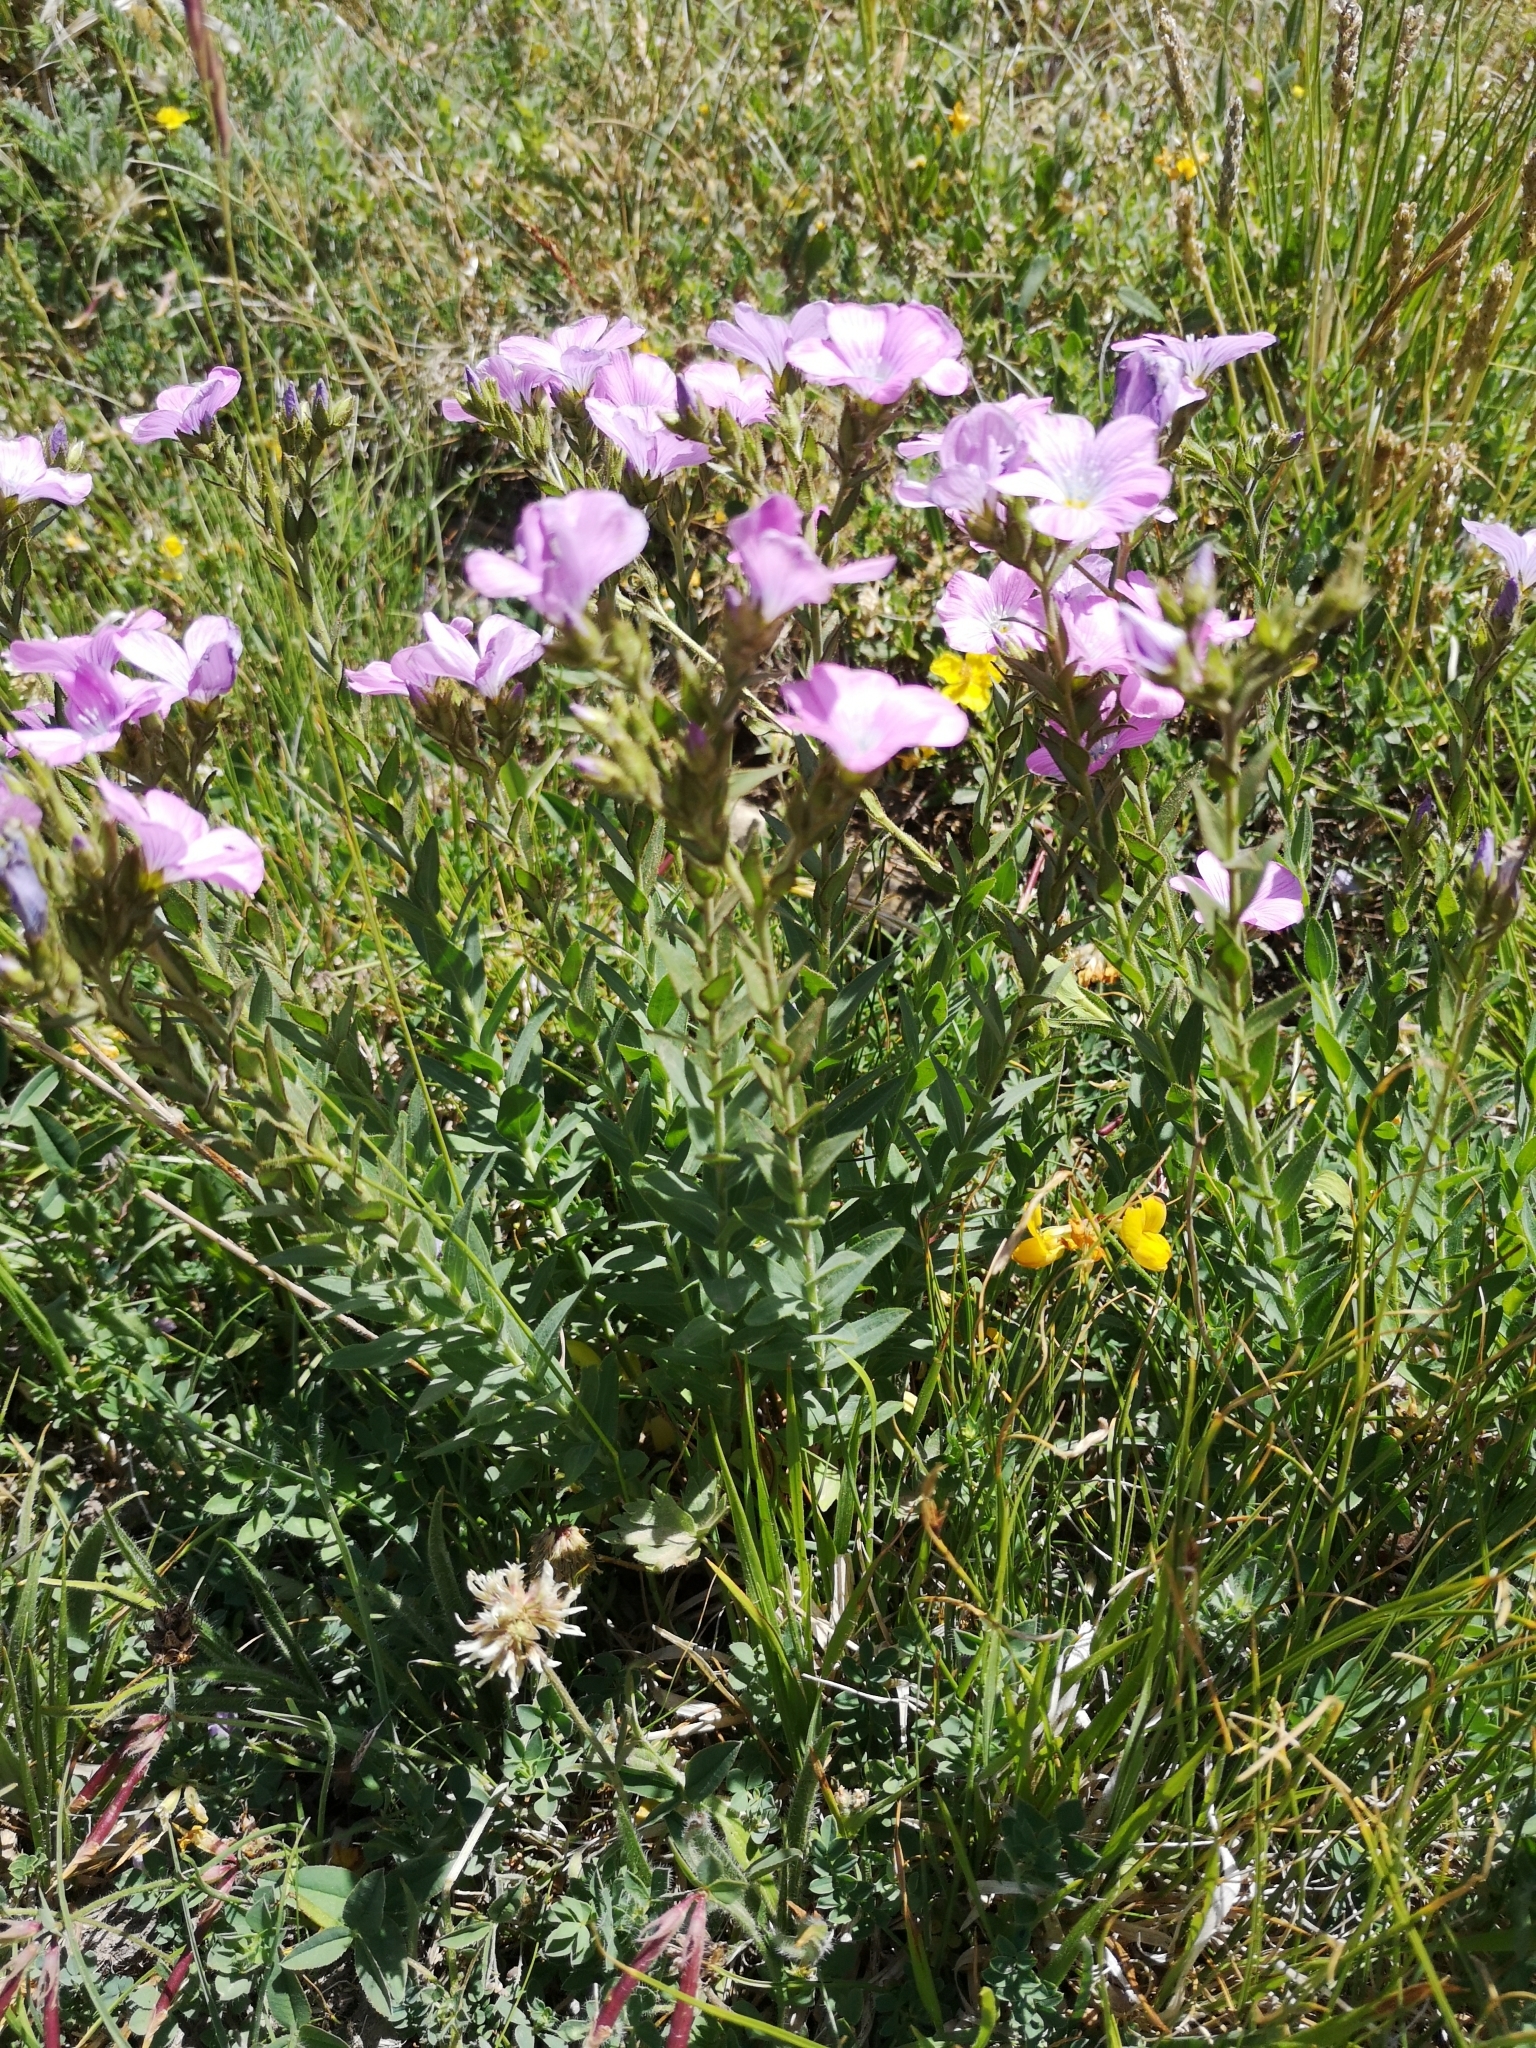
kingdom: Plantae
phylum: Tracheophyta
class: Magnoliopsida
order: Malpighiales
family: Linaceae
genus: Linum
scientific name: Linum viscosum
